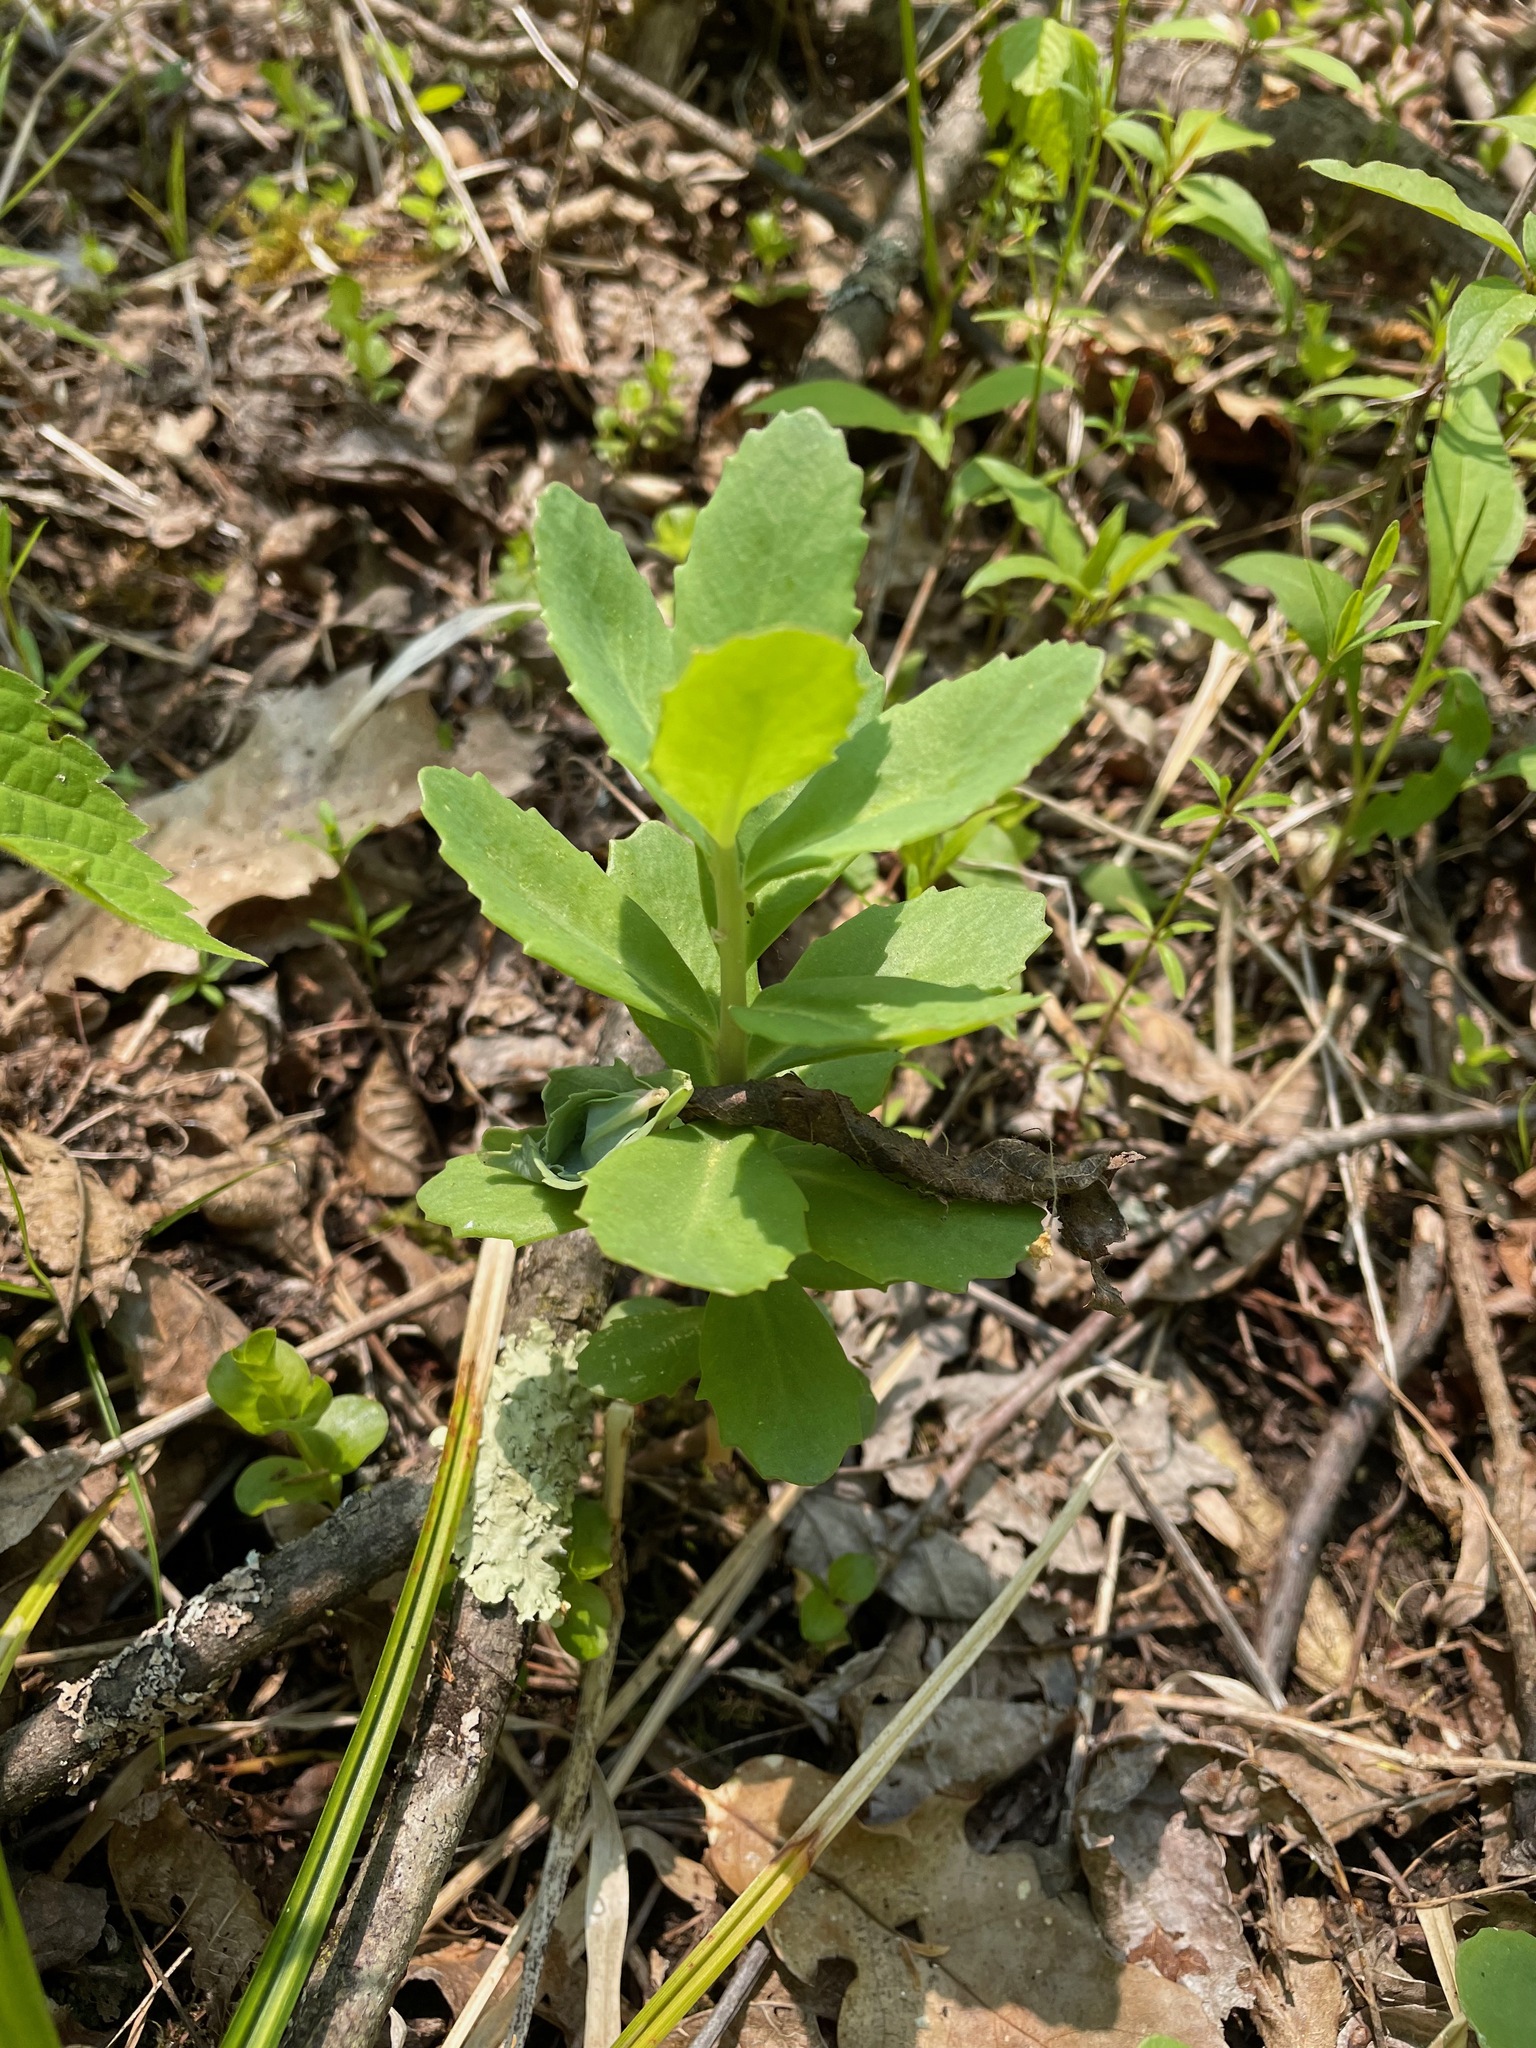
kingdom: Plantae
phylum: Tracheophyta
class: Magnoliopsida
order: Saxifragales
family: Crassulaceae
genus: Hylotelephium
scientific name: Hylotelephium telephium
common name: Live-forever
